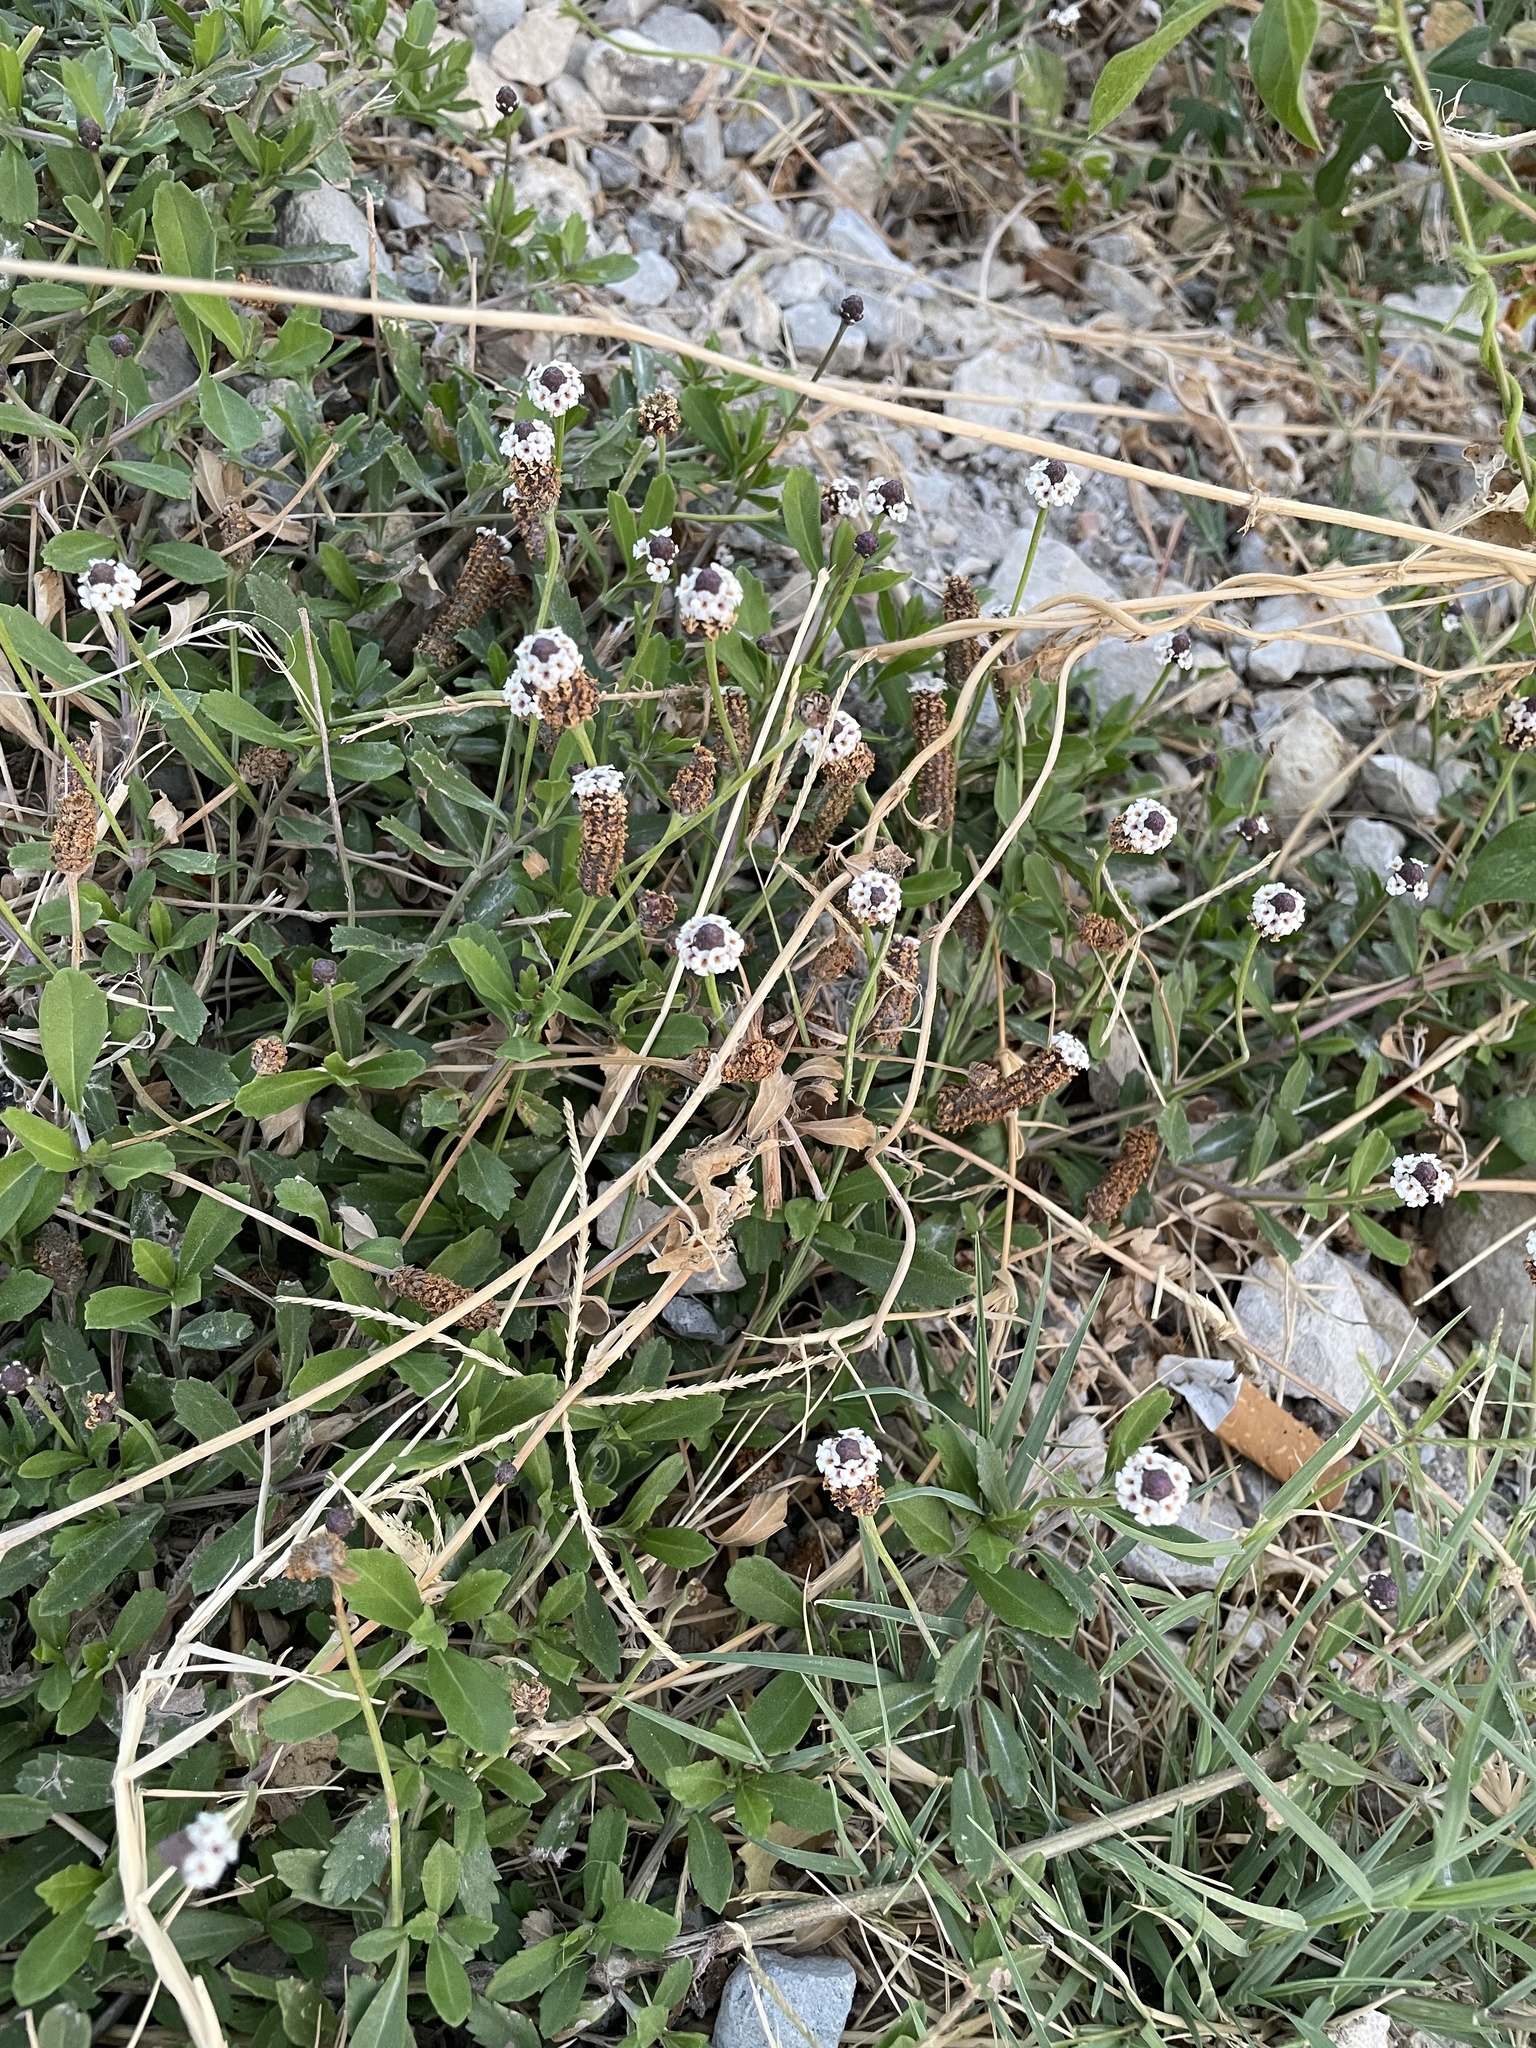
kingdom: Plantae
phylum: Tracheophyta
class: Magnoliopsida
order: Lamiales
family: Verbenaceae
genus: Phyla
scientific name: Phyla nodiflora
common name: Frogfruit
